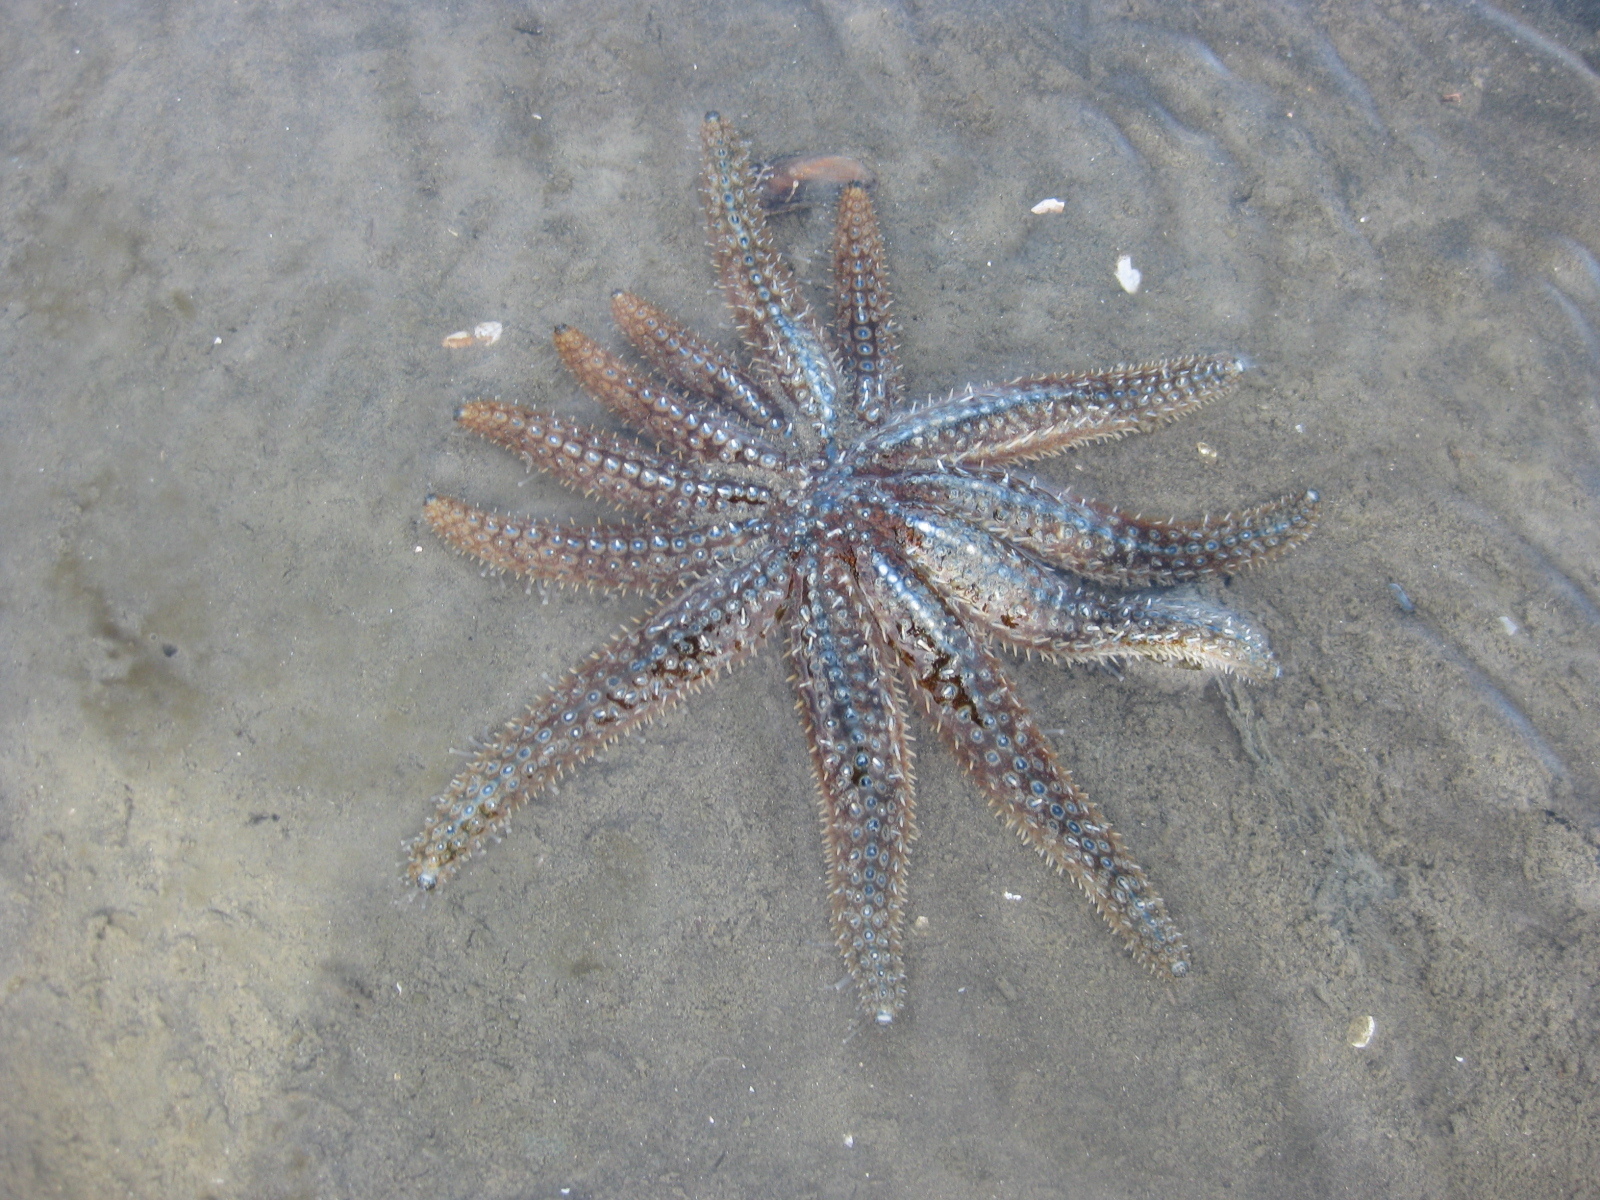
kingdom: Animalia
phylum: Echinodermata
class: Asteroidea
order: Forcipulatida
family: Asteriidae
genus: Coscinasterias
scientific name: Coscinasterias muricata
